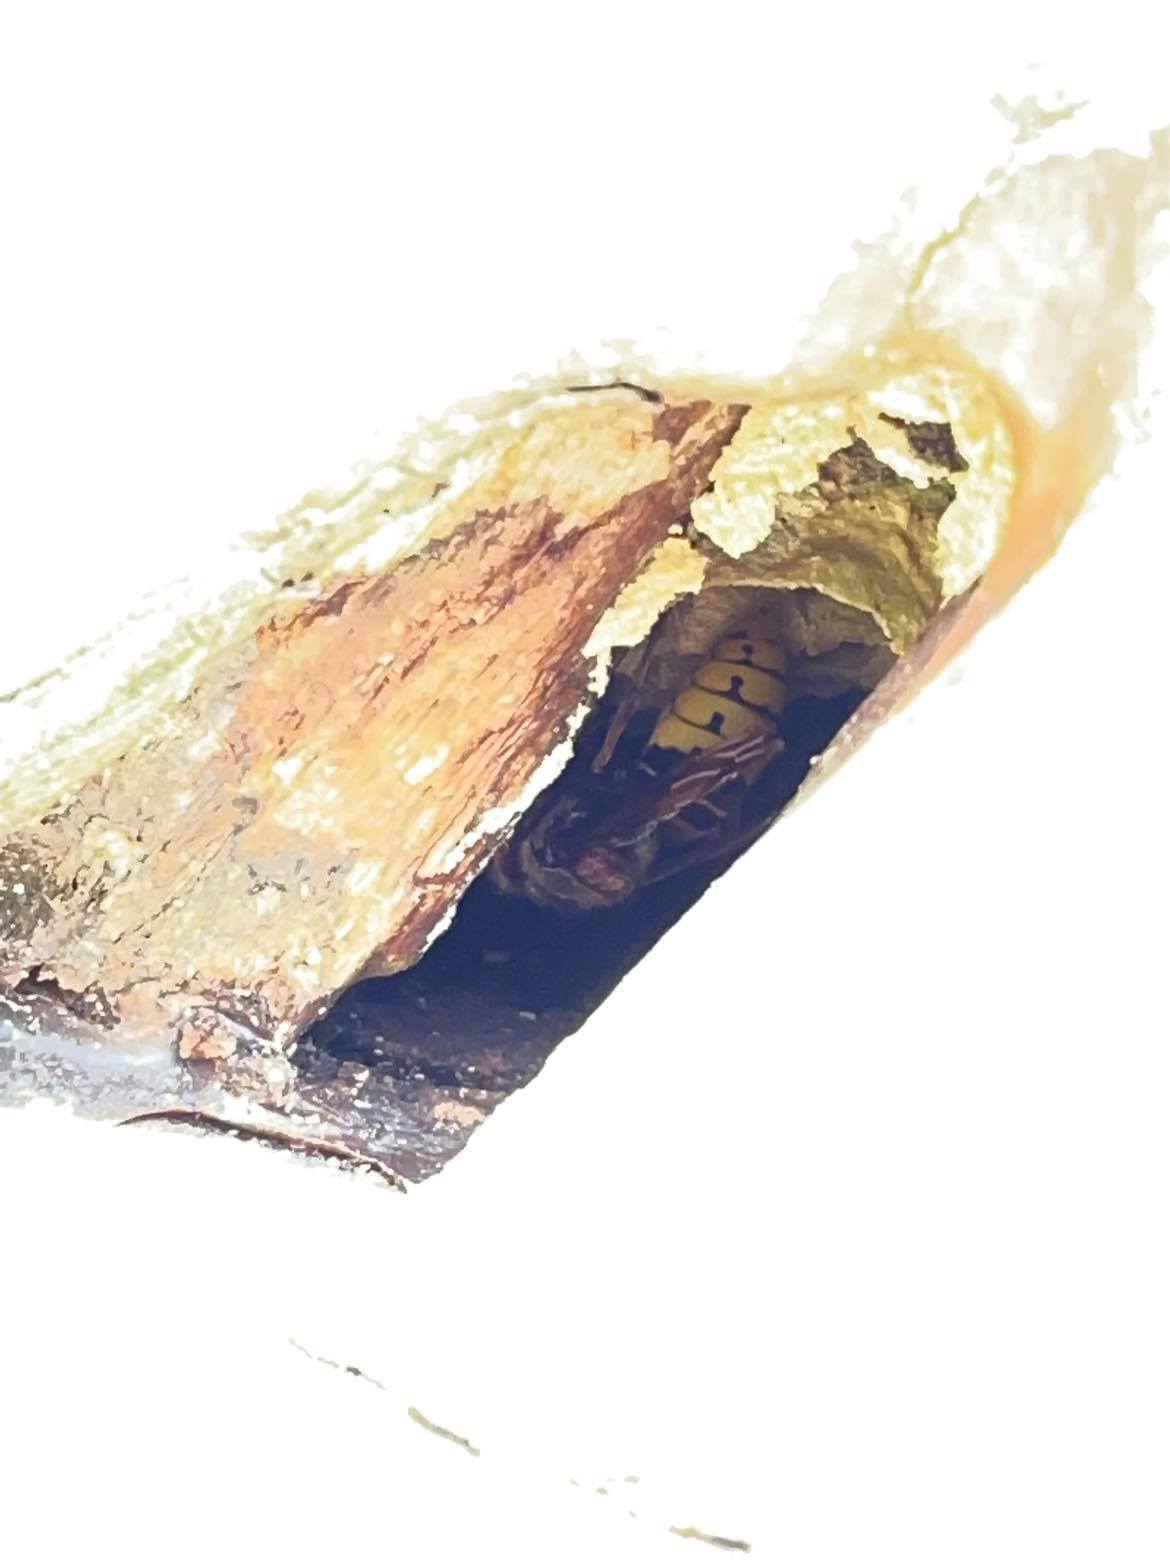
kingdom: Animalia
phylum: Arthropoda
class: Insecta
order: Hymenoptera
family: Vespidae
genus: Vespa
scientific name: Vespa crabro
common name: Hornet
